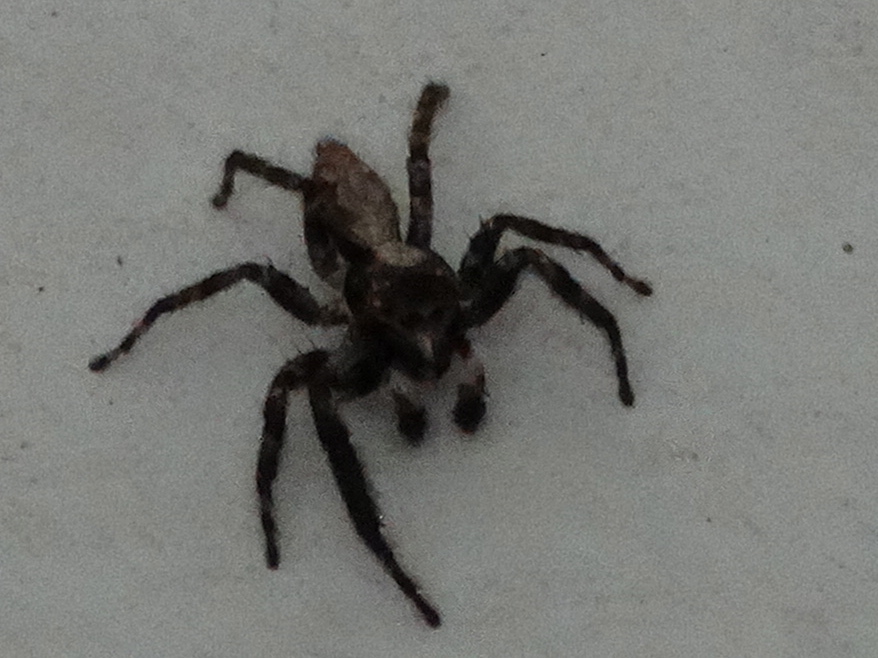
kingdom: Animalia
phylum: Arthropoda
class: Arachnida
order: Araneae
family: Salticidae
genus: Balmaceda
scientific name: Balmaceda
